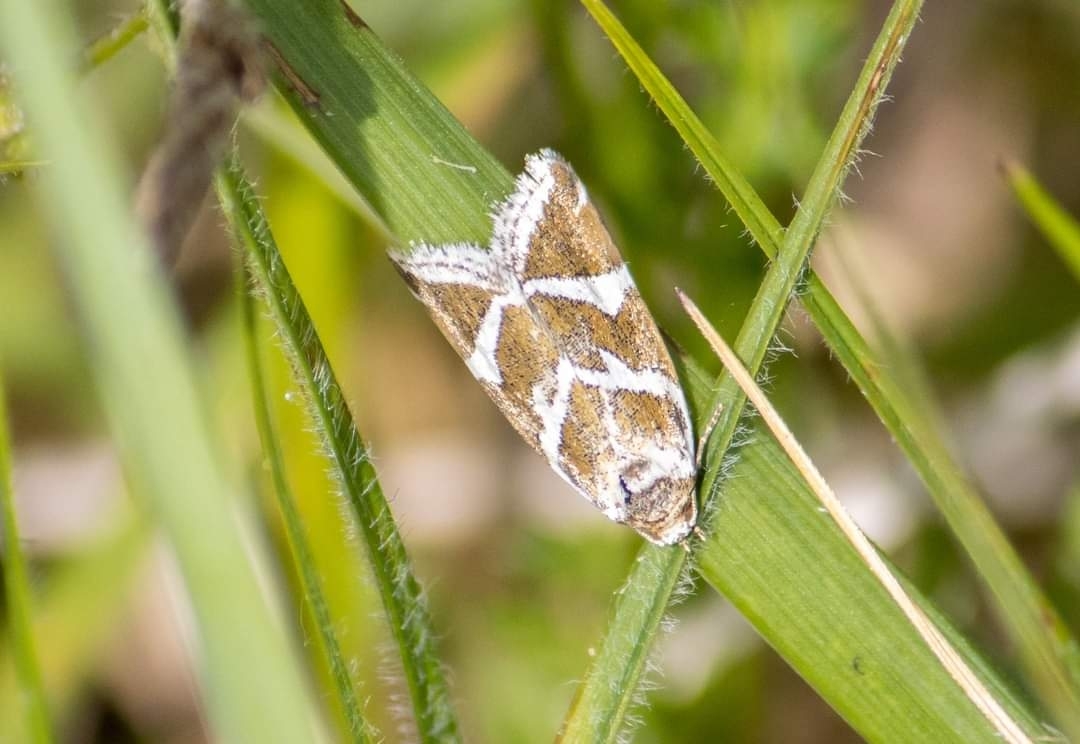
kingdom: Animalia
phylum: Arthropoda
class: Insecta
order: Lepidoptera
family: Noctuidae
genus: Deltote
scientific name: Deltote bankiana
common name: Silver barred
